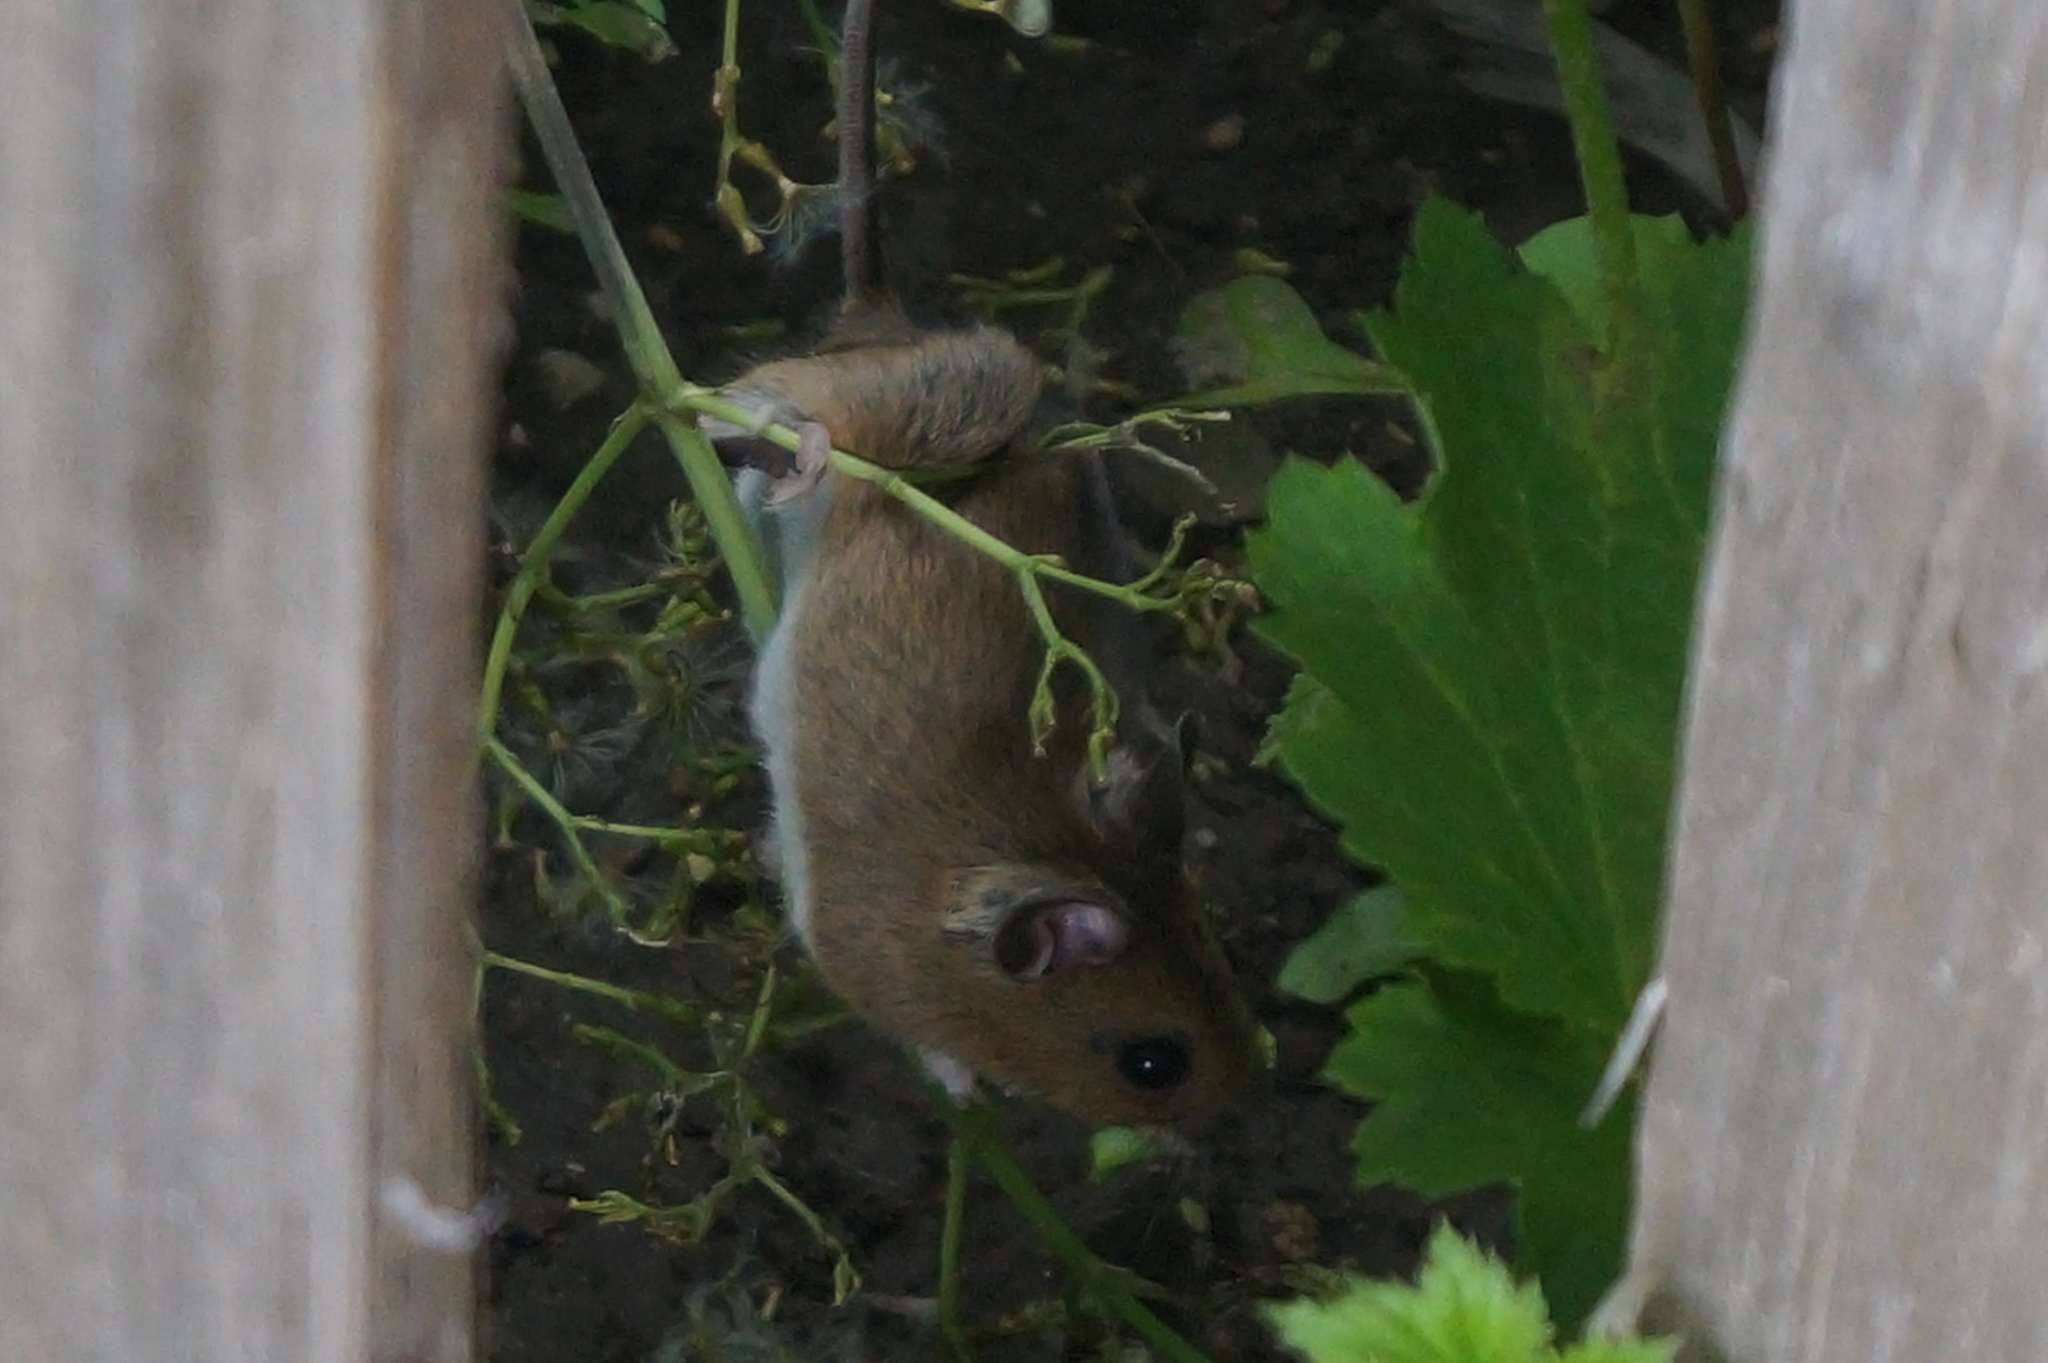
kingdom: Animalia
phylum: Chordata
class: Mammalia
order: Rodentia
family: Muridae
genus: Apodemus
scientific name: Apodemus sylvaticus
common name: Wood mouse
